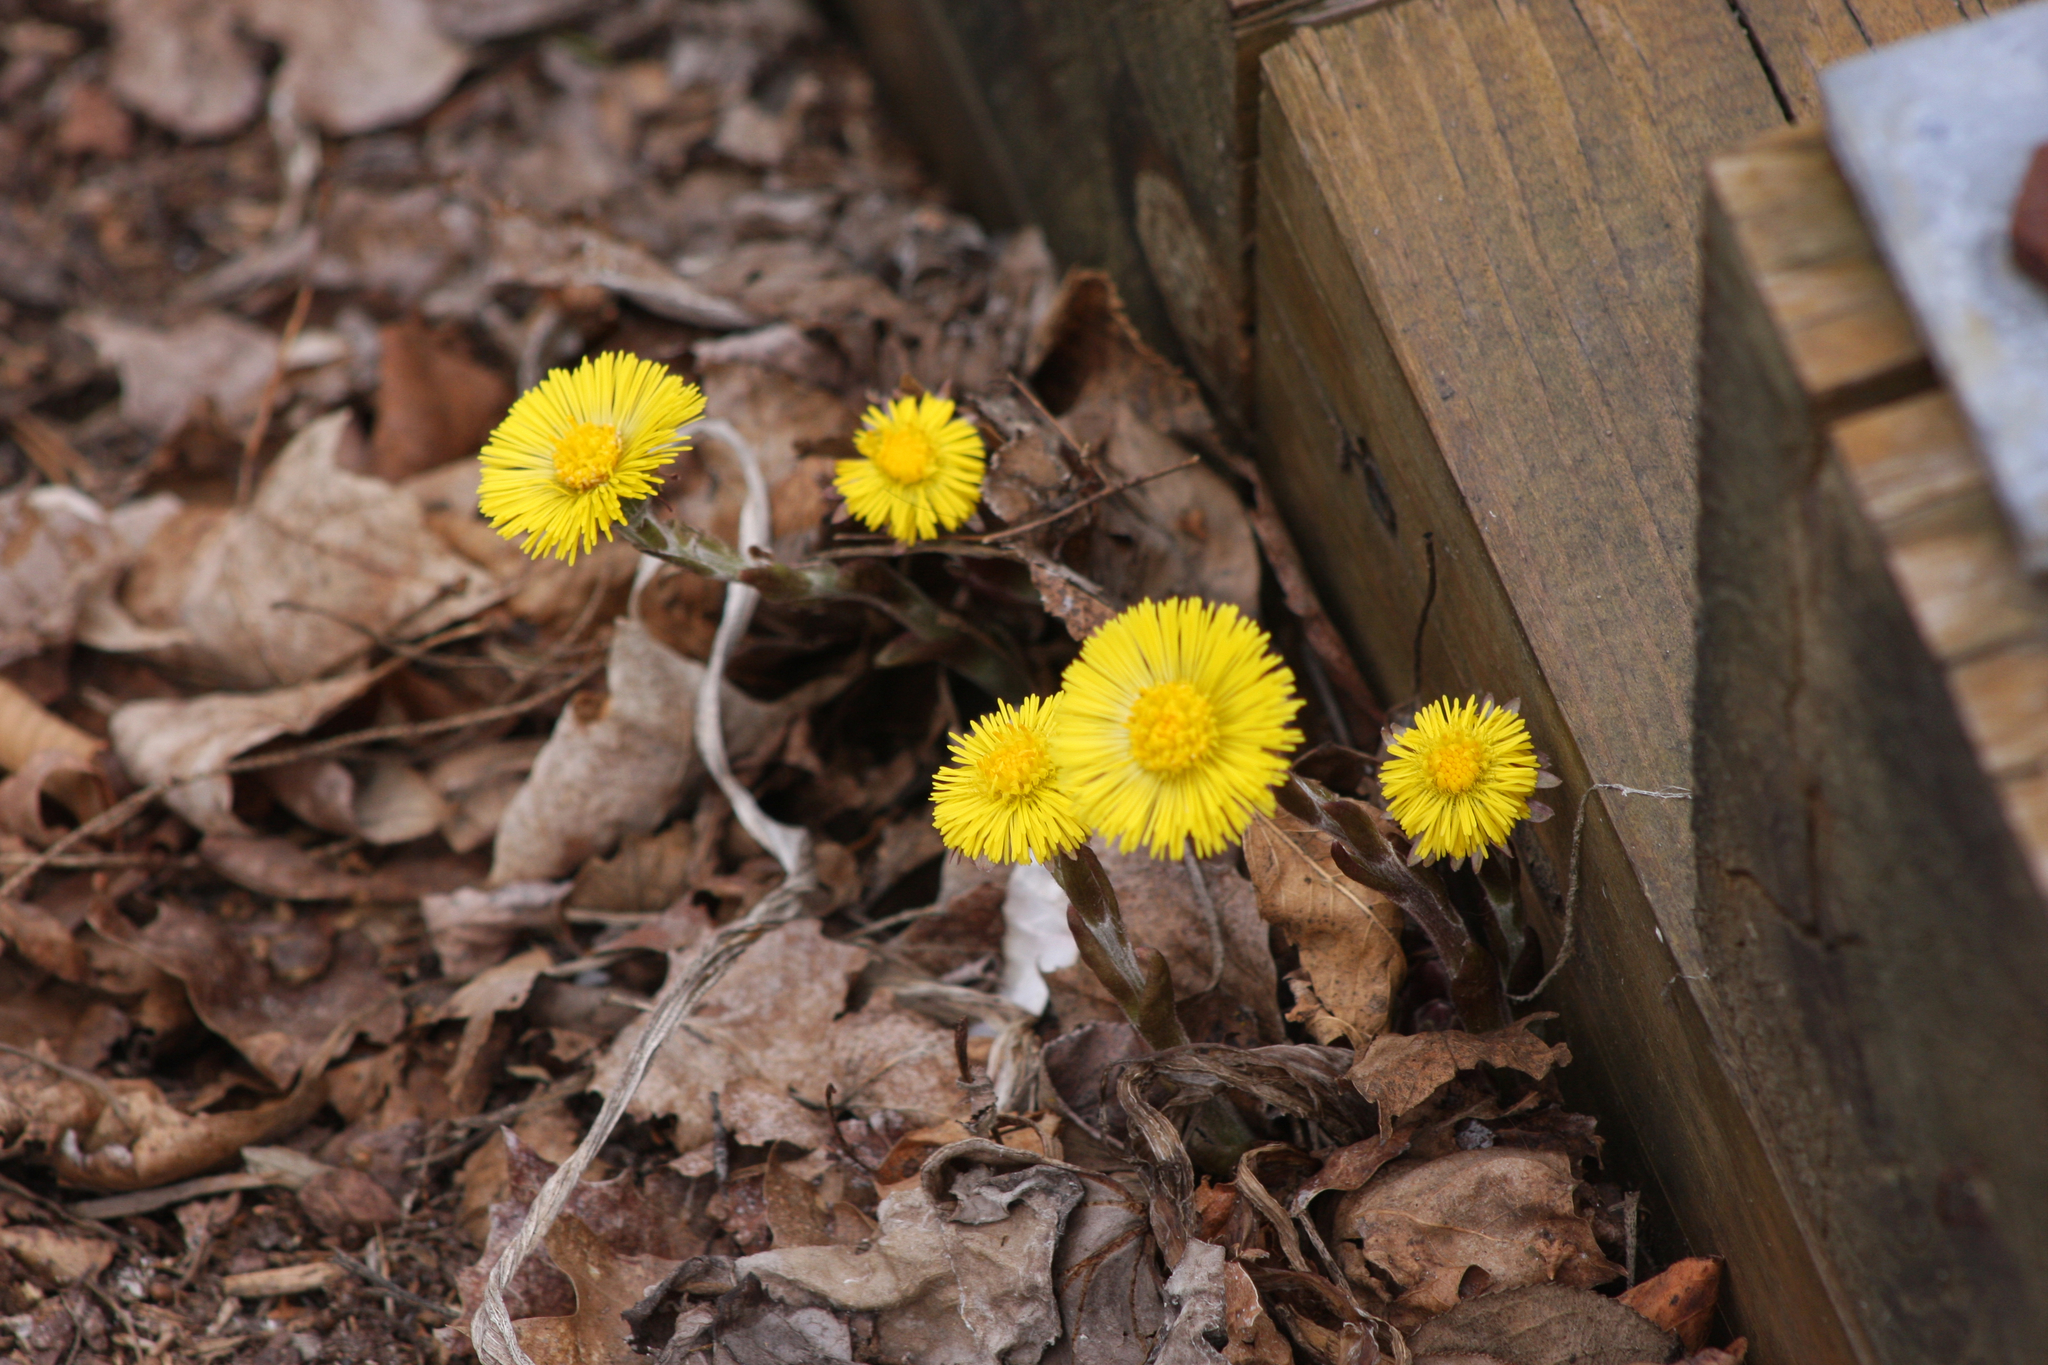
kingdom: Plantae
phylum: Tracheophyta
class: Magnoliopsida
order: Asterales
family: Asteraceae
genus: Tussilago
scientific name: Tussilago farfara
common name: Coltsfoot
